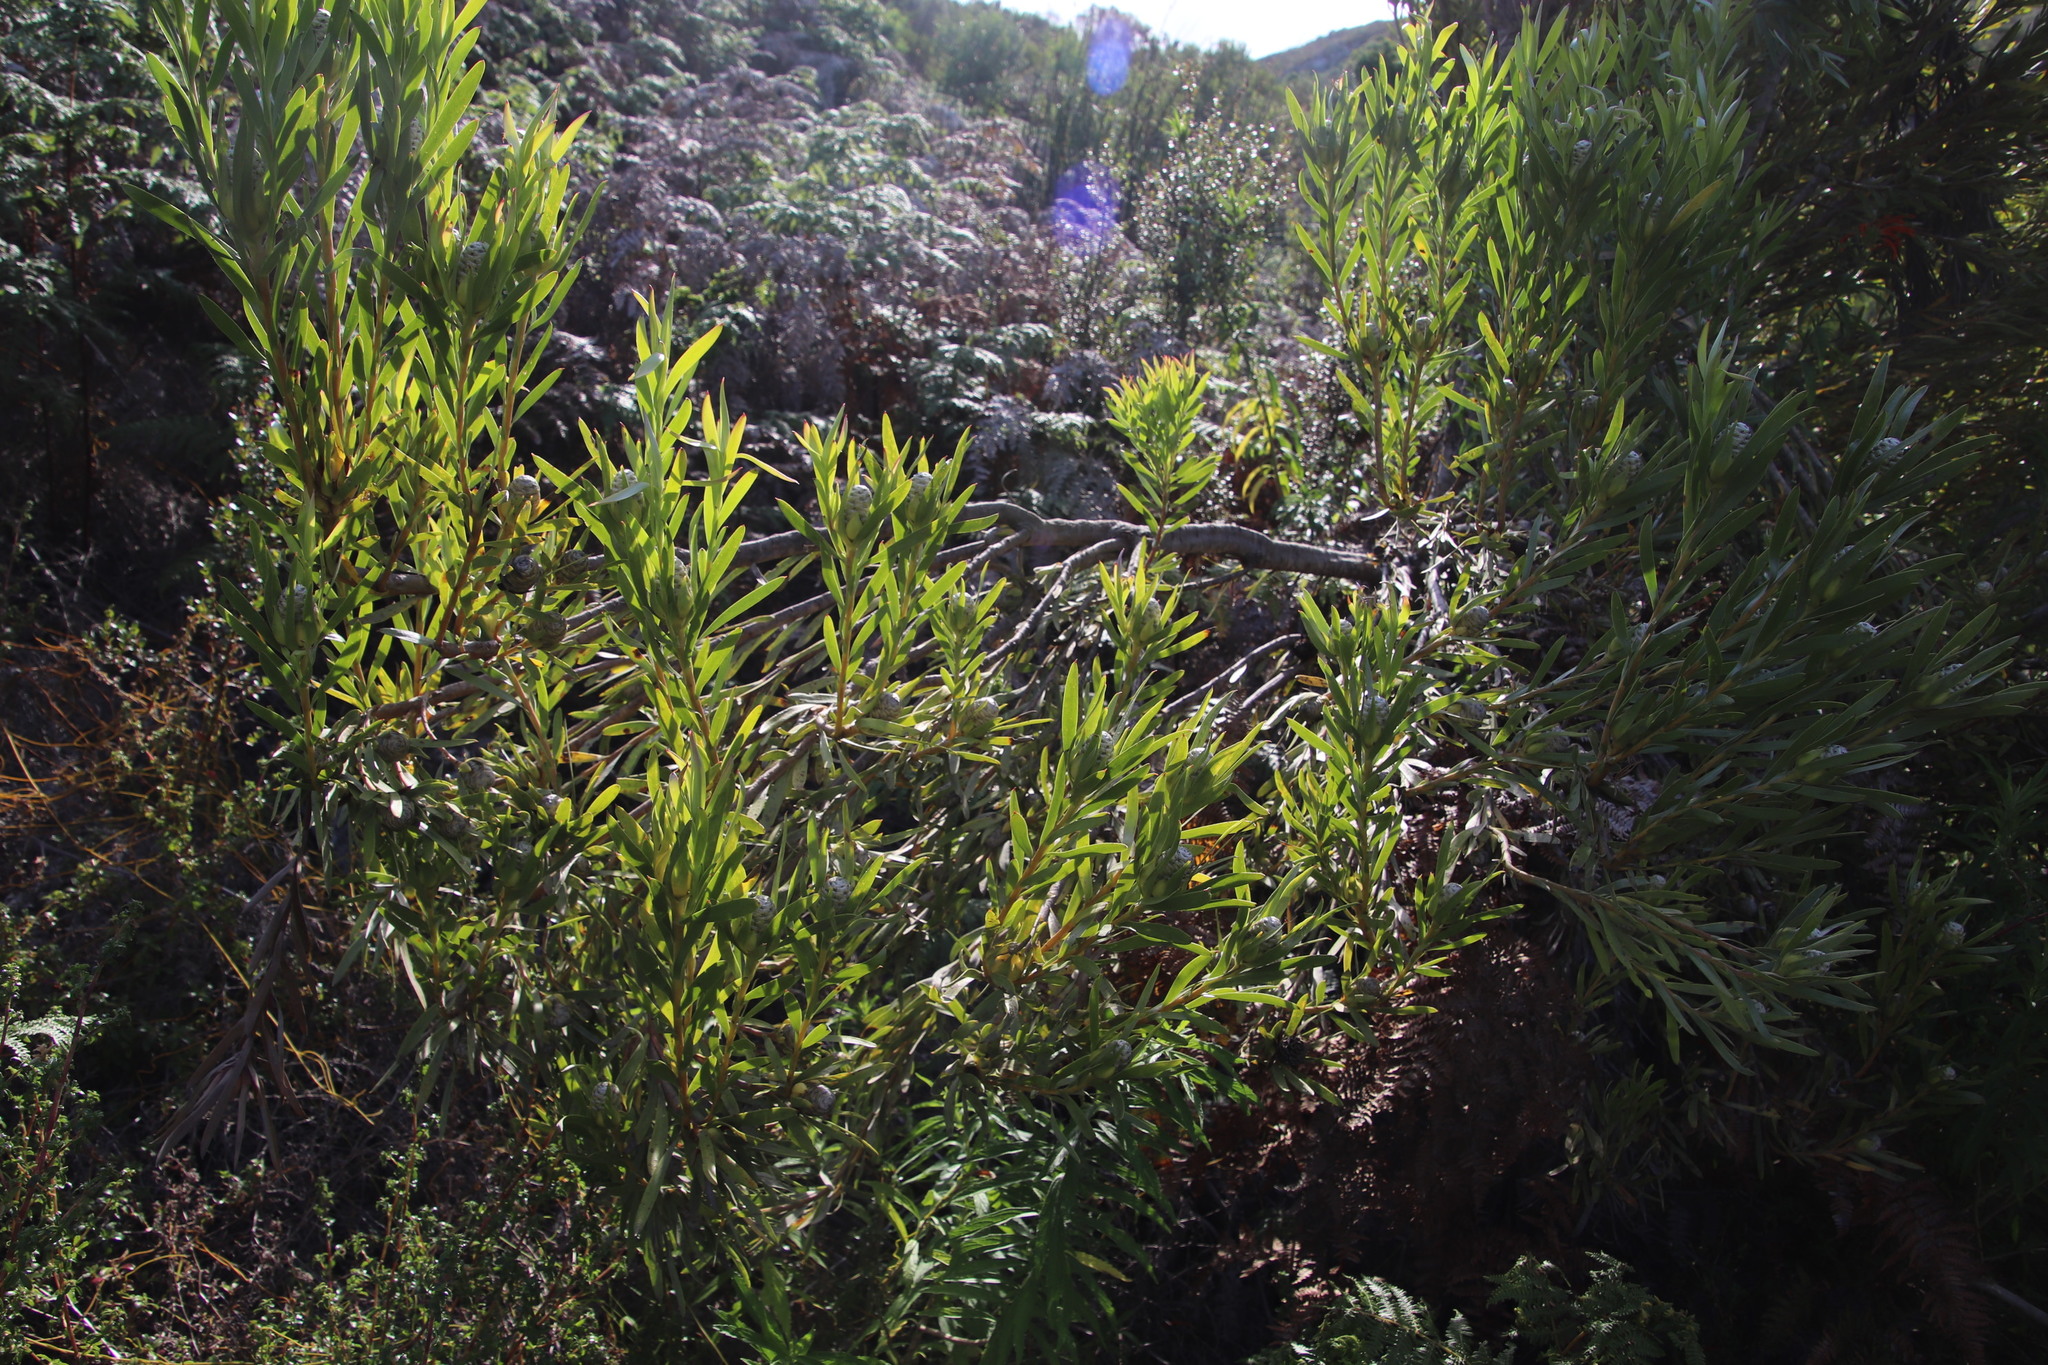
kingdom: Plantae
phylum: Tracheophyta
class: Magnoliopsida
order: Proteales
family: Proteaceae
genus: Leucadendron
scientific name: Leucadendron meridianum
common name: Limestone conebush
